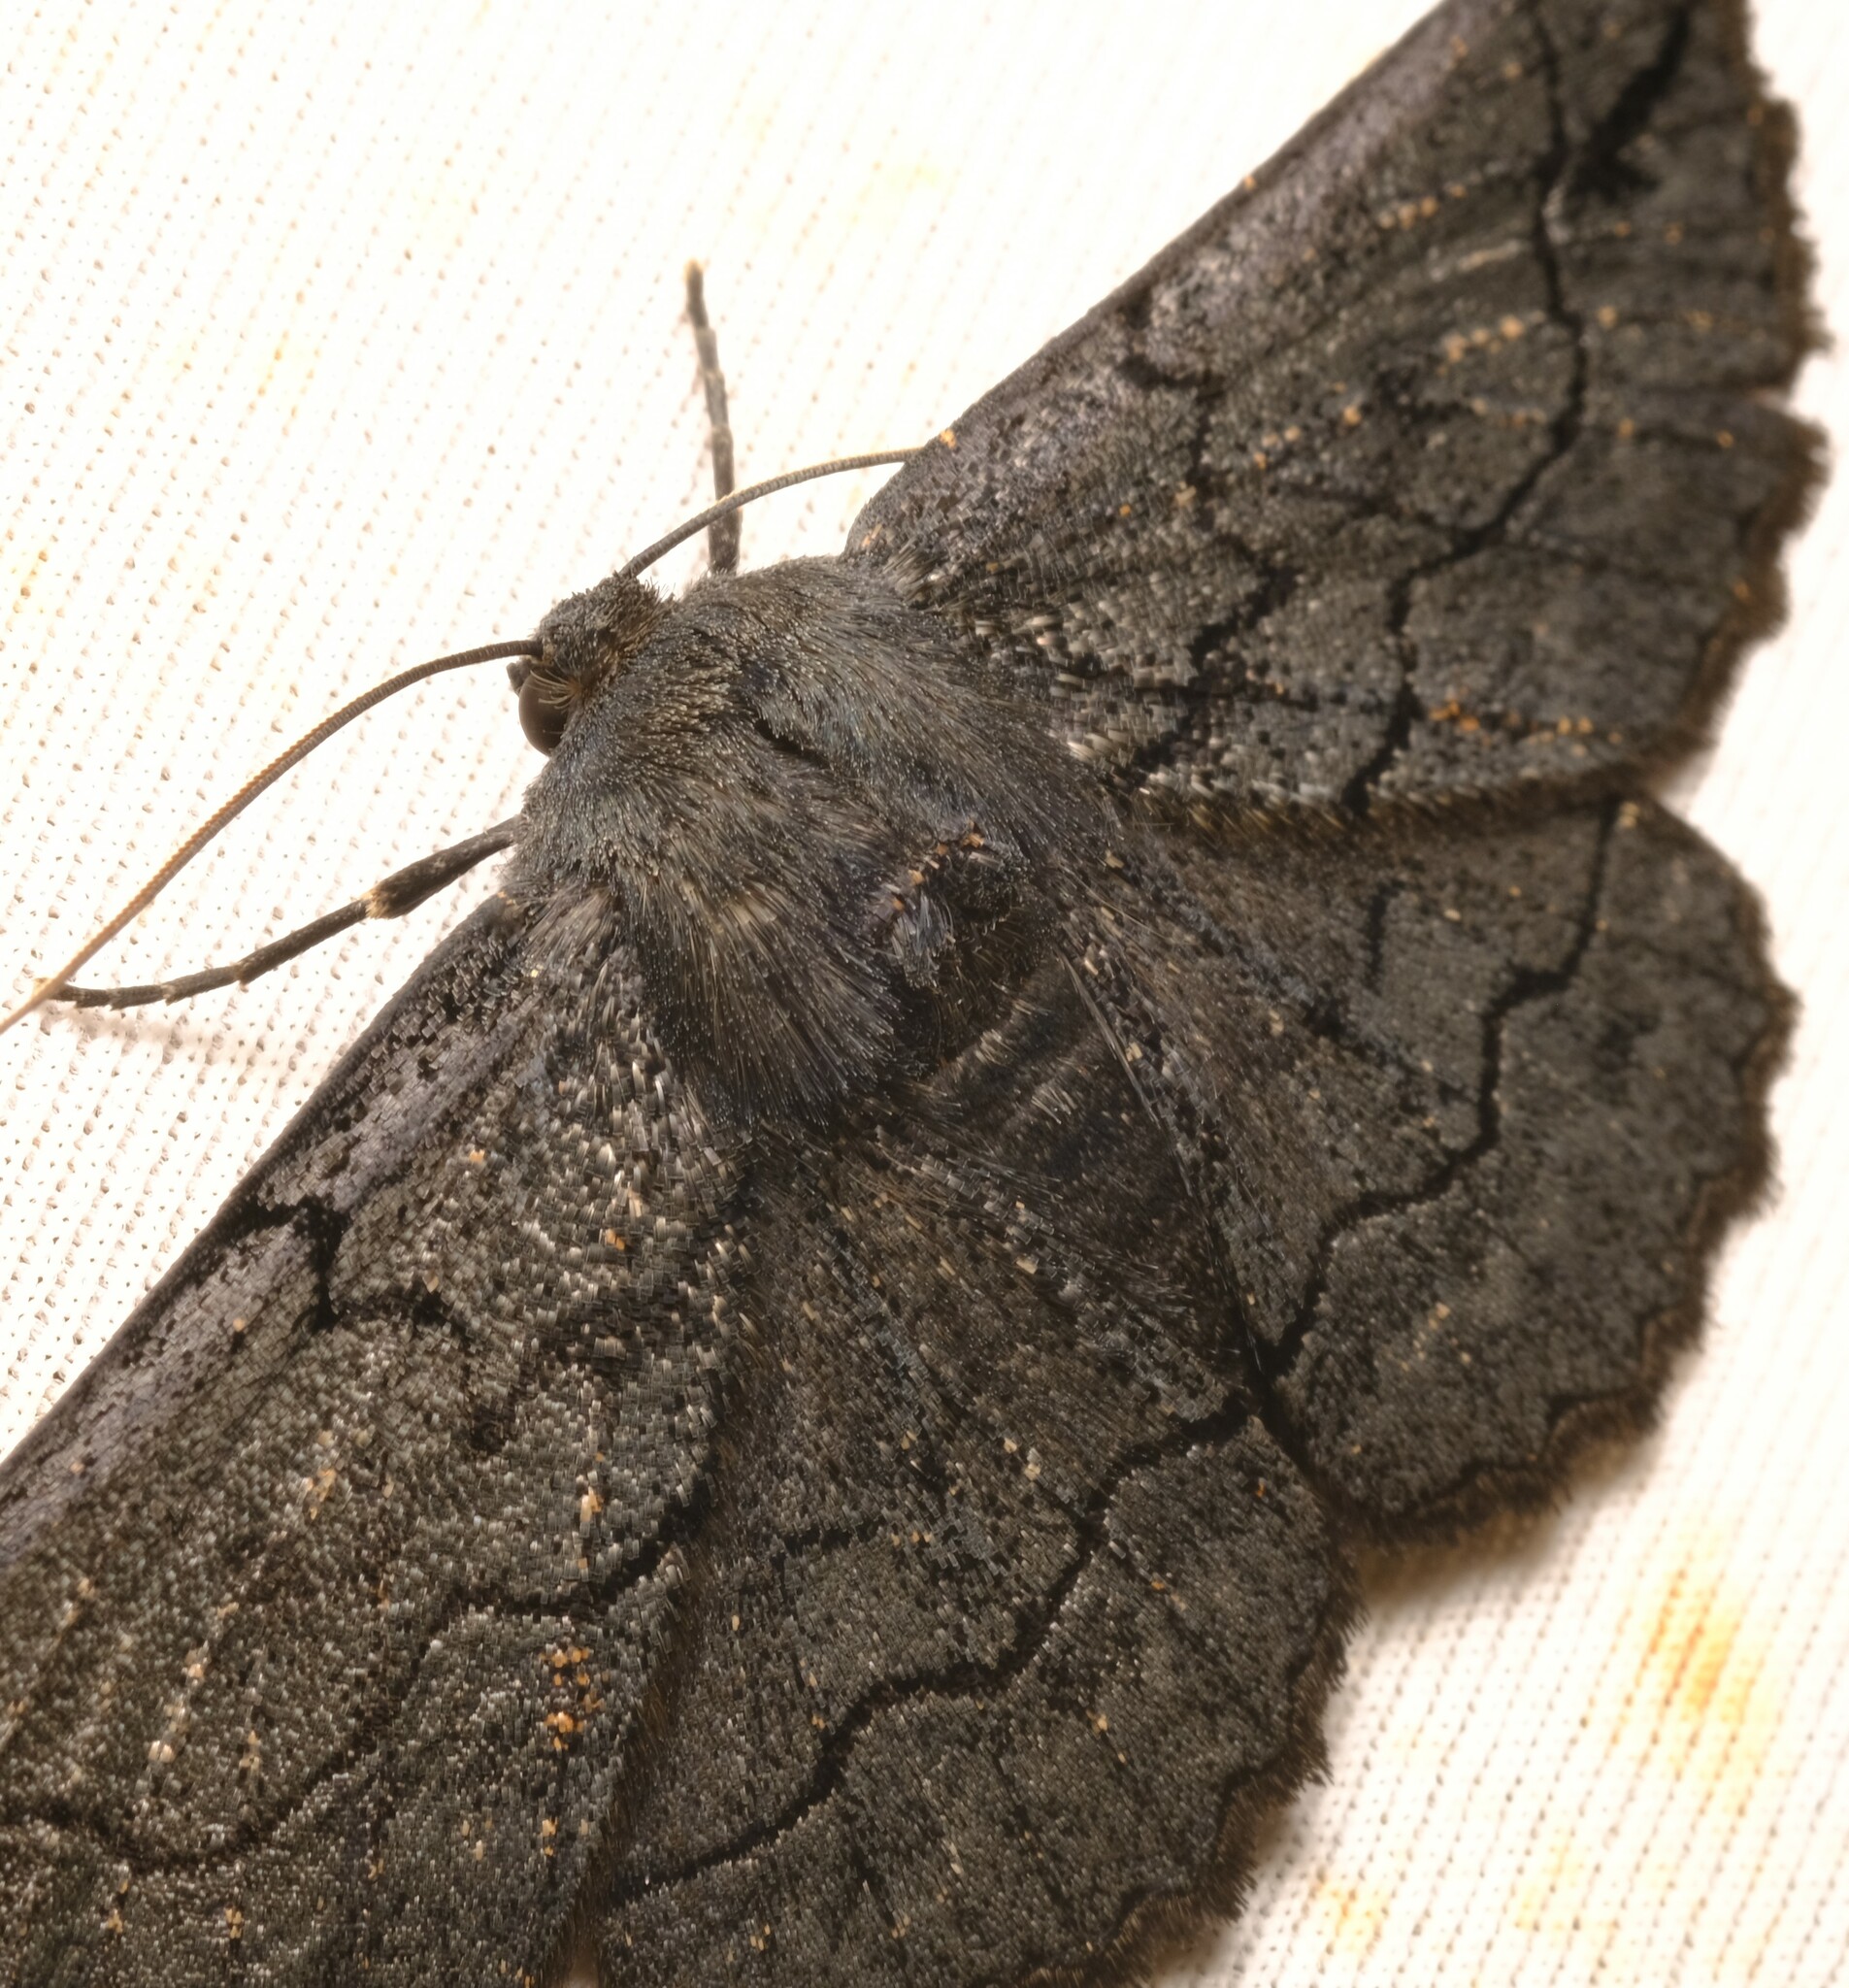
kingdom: Animalia
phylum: Arthropoda
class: Insecta
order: Lepidoptera
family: Geometridae
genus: Melanodes
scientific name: Melanodes anthracitaria
